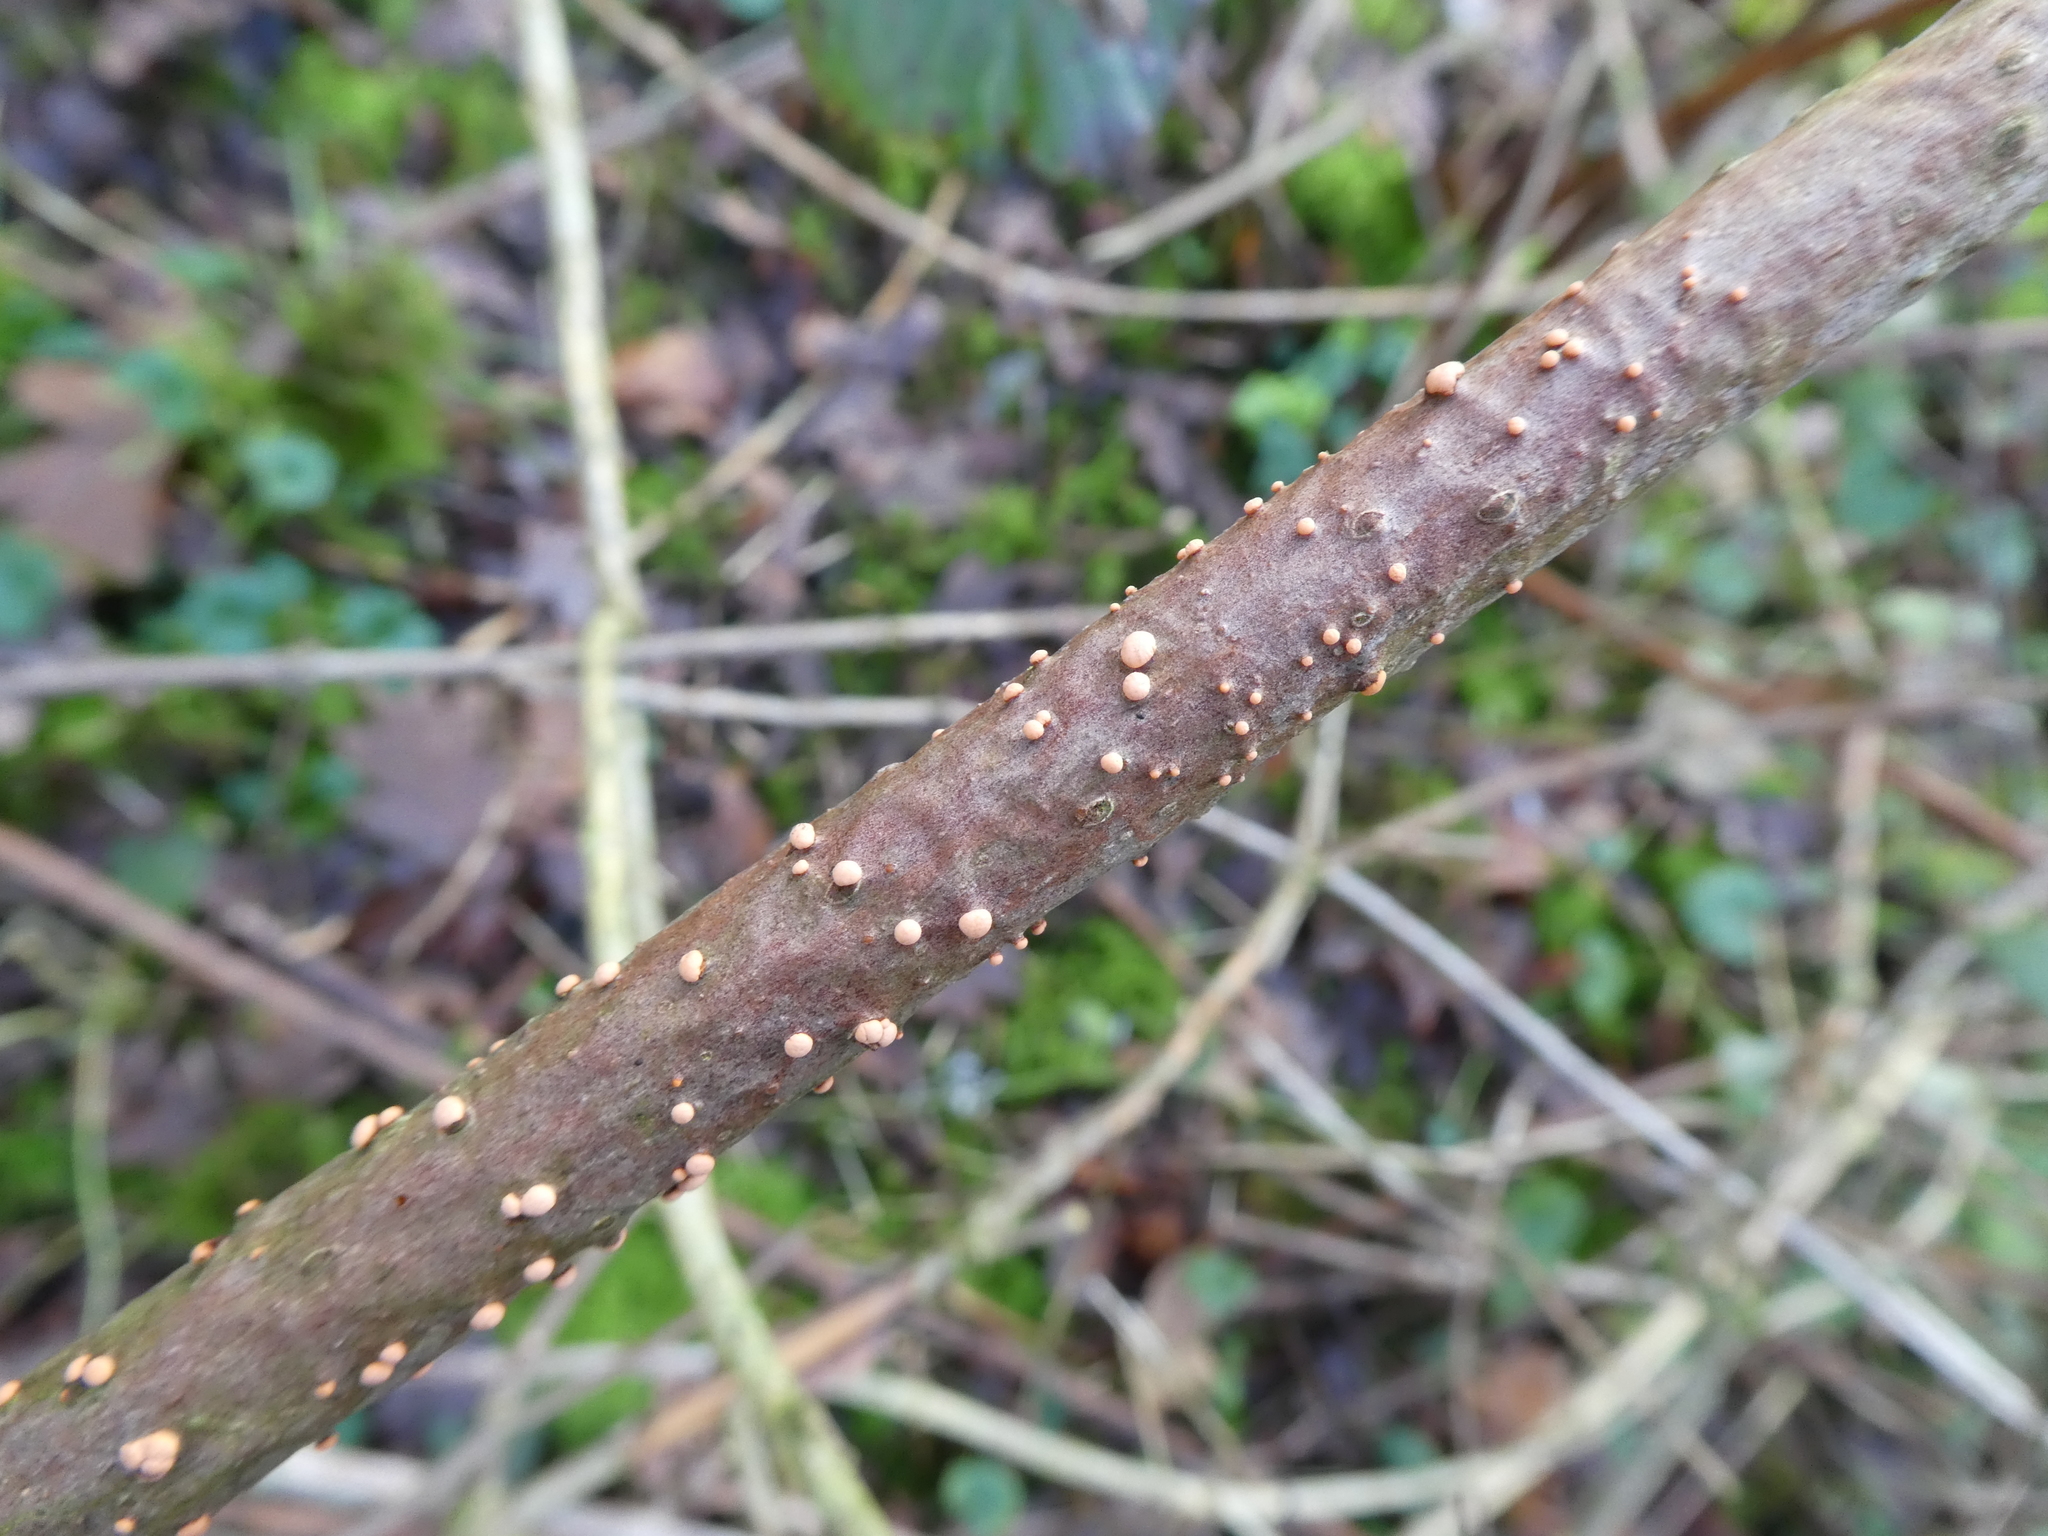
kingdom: Fungi
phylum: Ascomycota
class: Sordariomycetes
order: Hypocreales
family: Nectriaceae
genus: Nectria
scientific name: Nectria cinnabarina
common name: Coral spot
